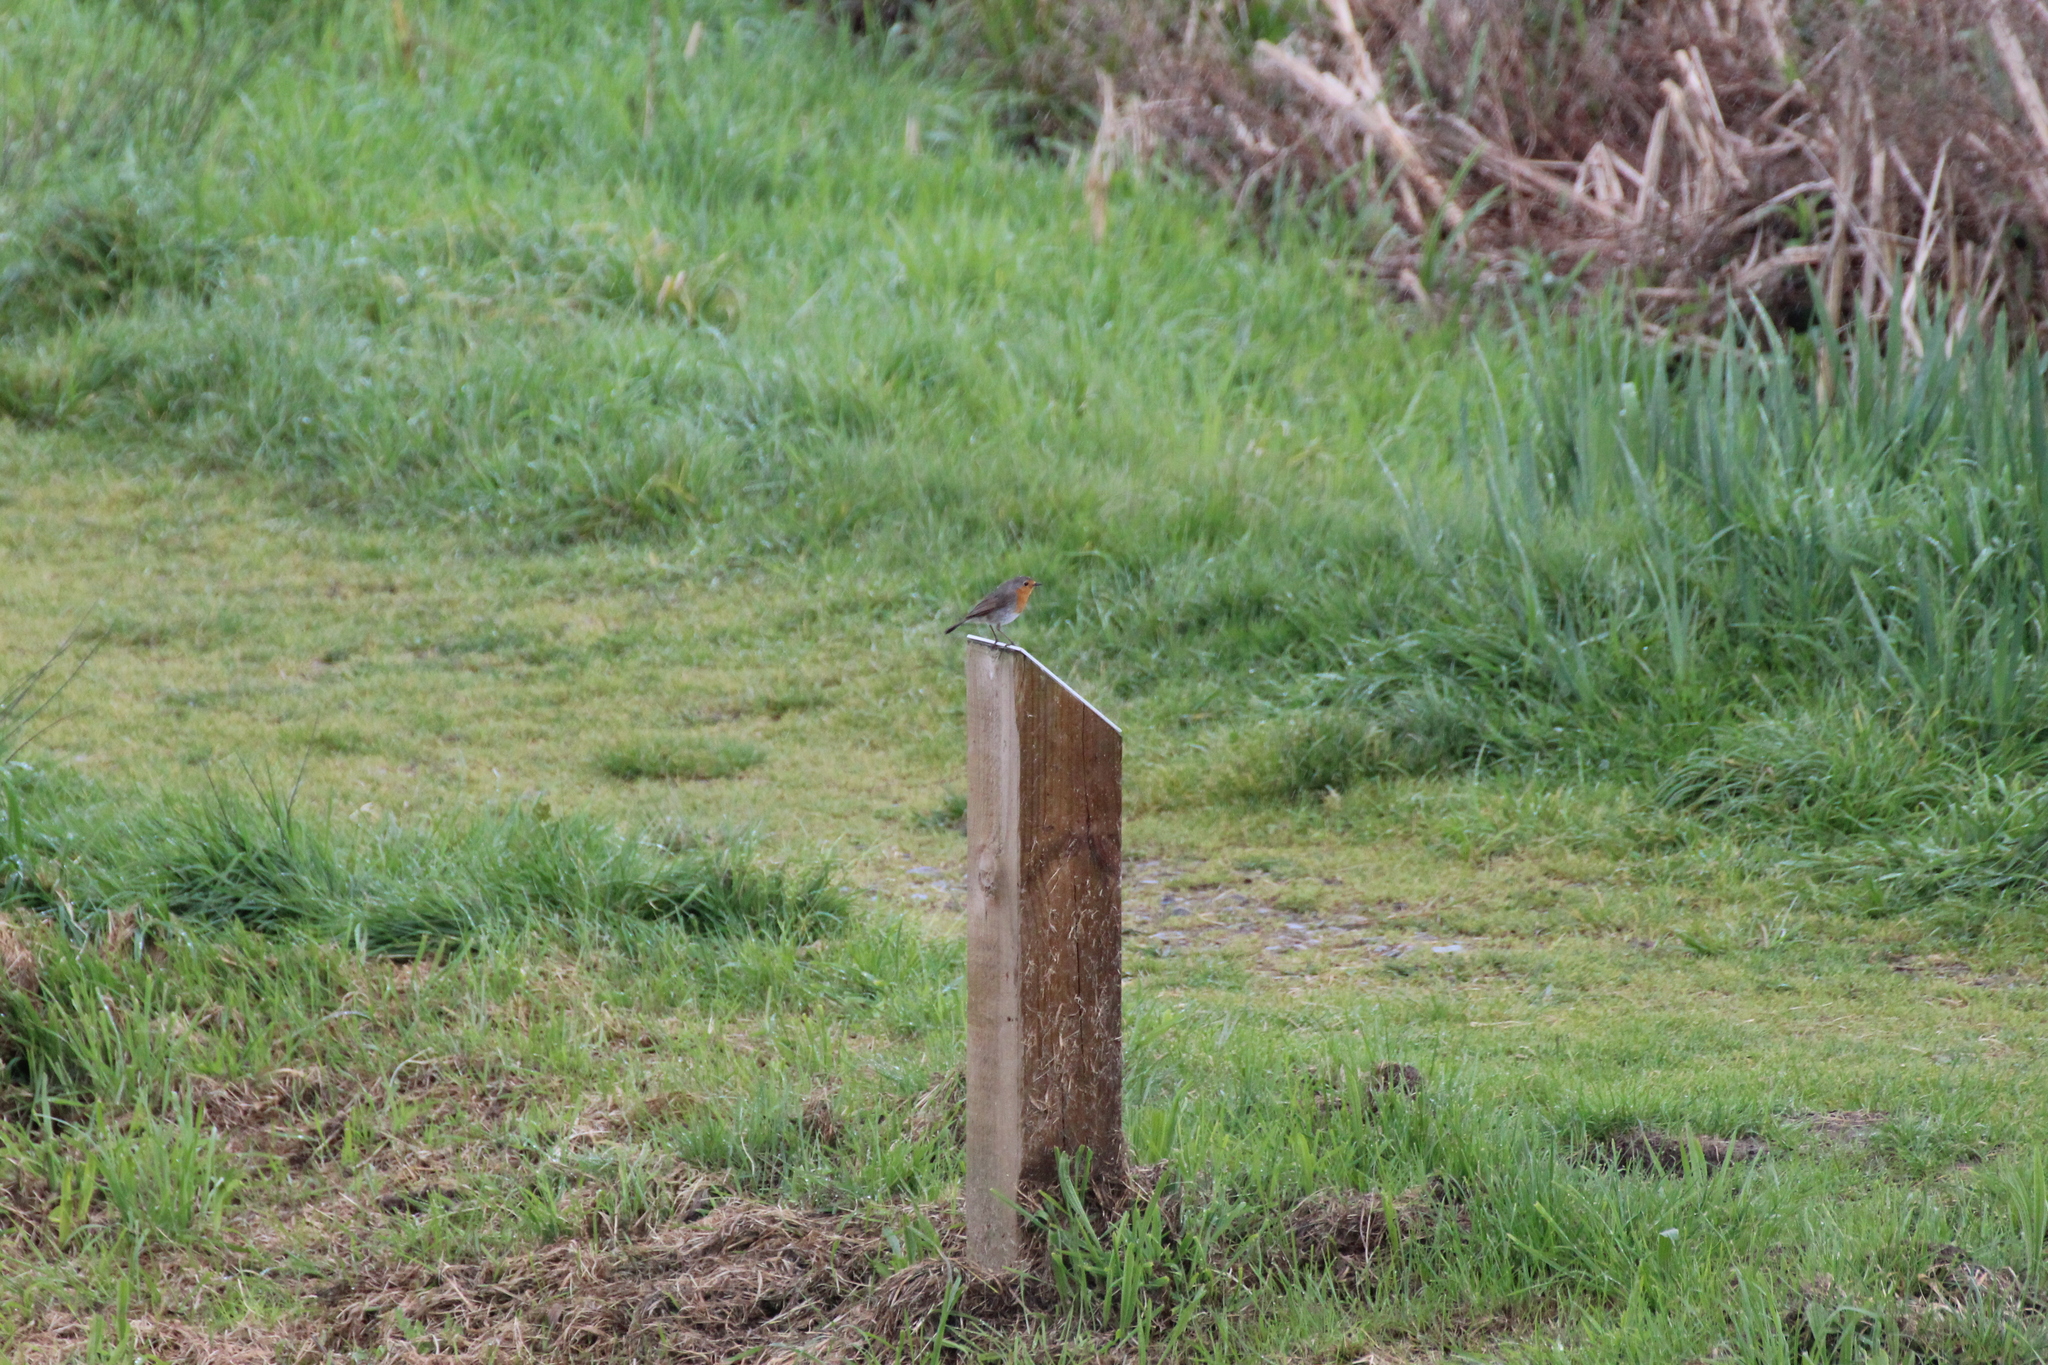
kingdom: Animalia
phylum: Chordata
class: Aves
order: Passeriformes
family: Muscicapidae
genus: Erithacus
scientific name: Erithacus rubecula
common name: European robin
